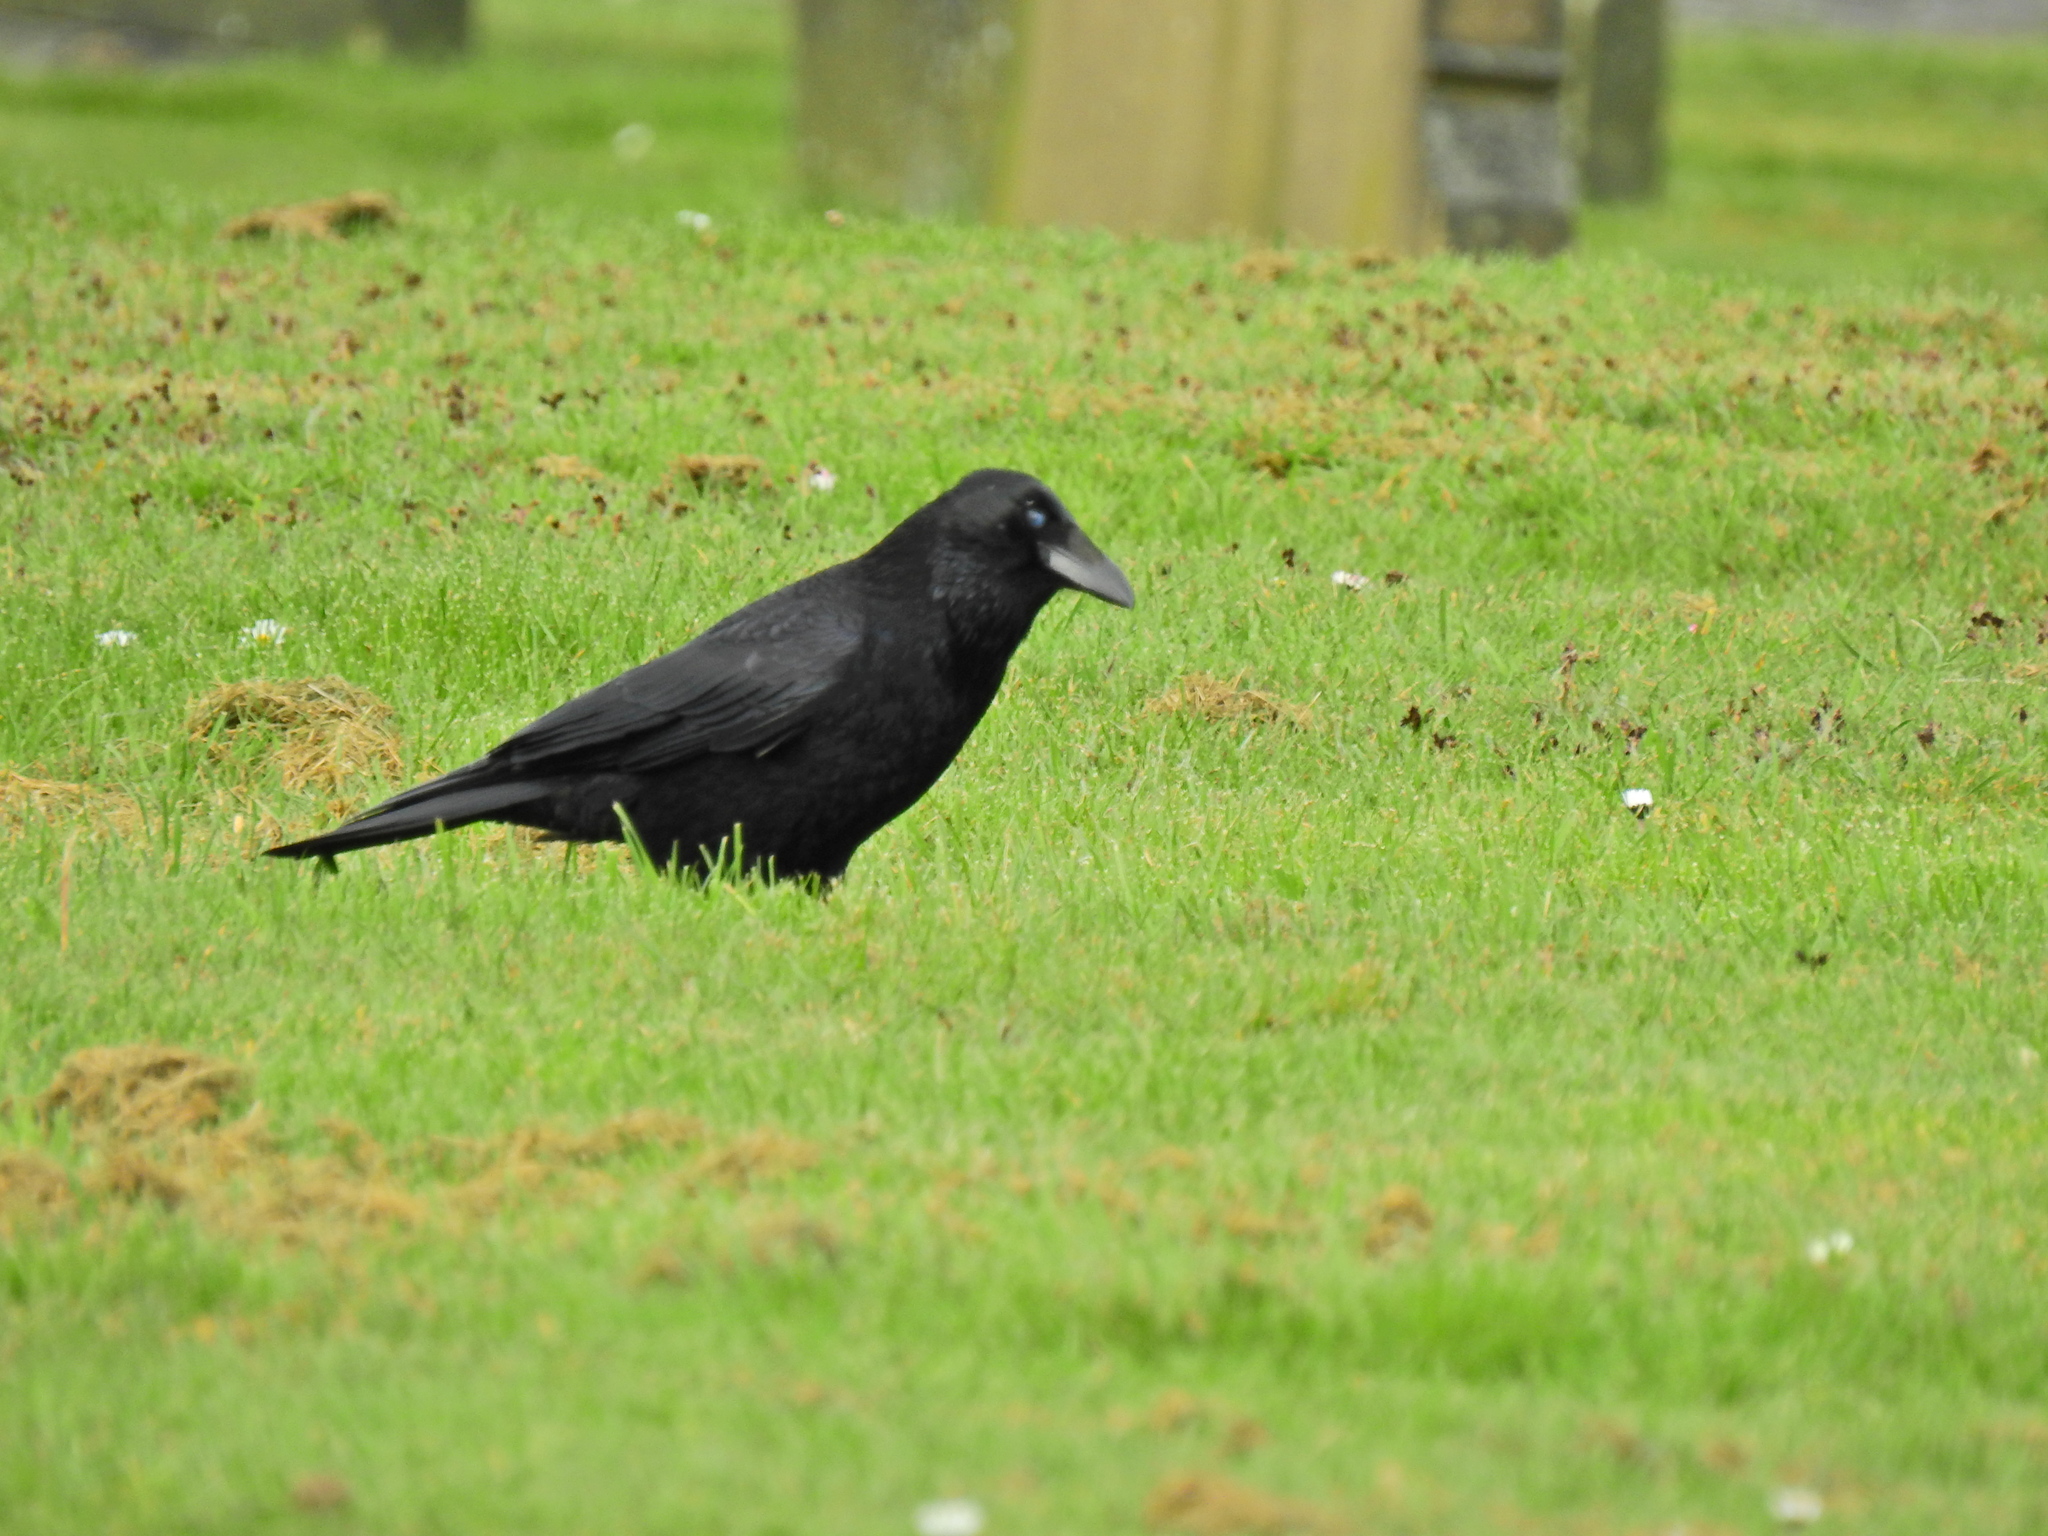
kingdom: Animalia
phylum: Chordata
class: Aves
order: Passeriformes
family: Corvidae
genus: Corvus
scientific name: Corvus corone
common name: Carrion crow
